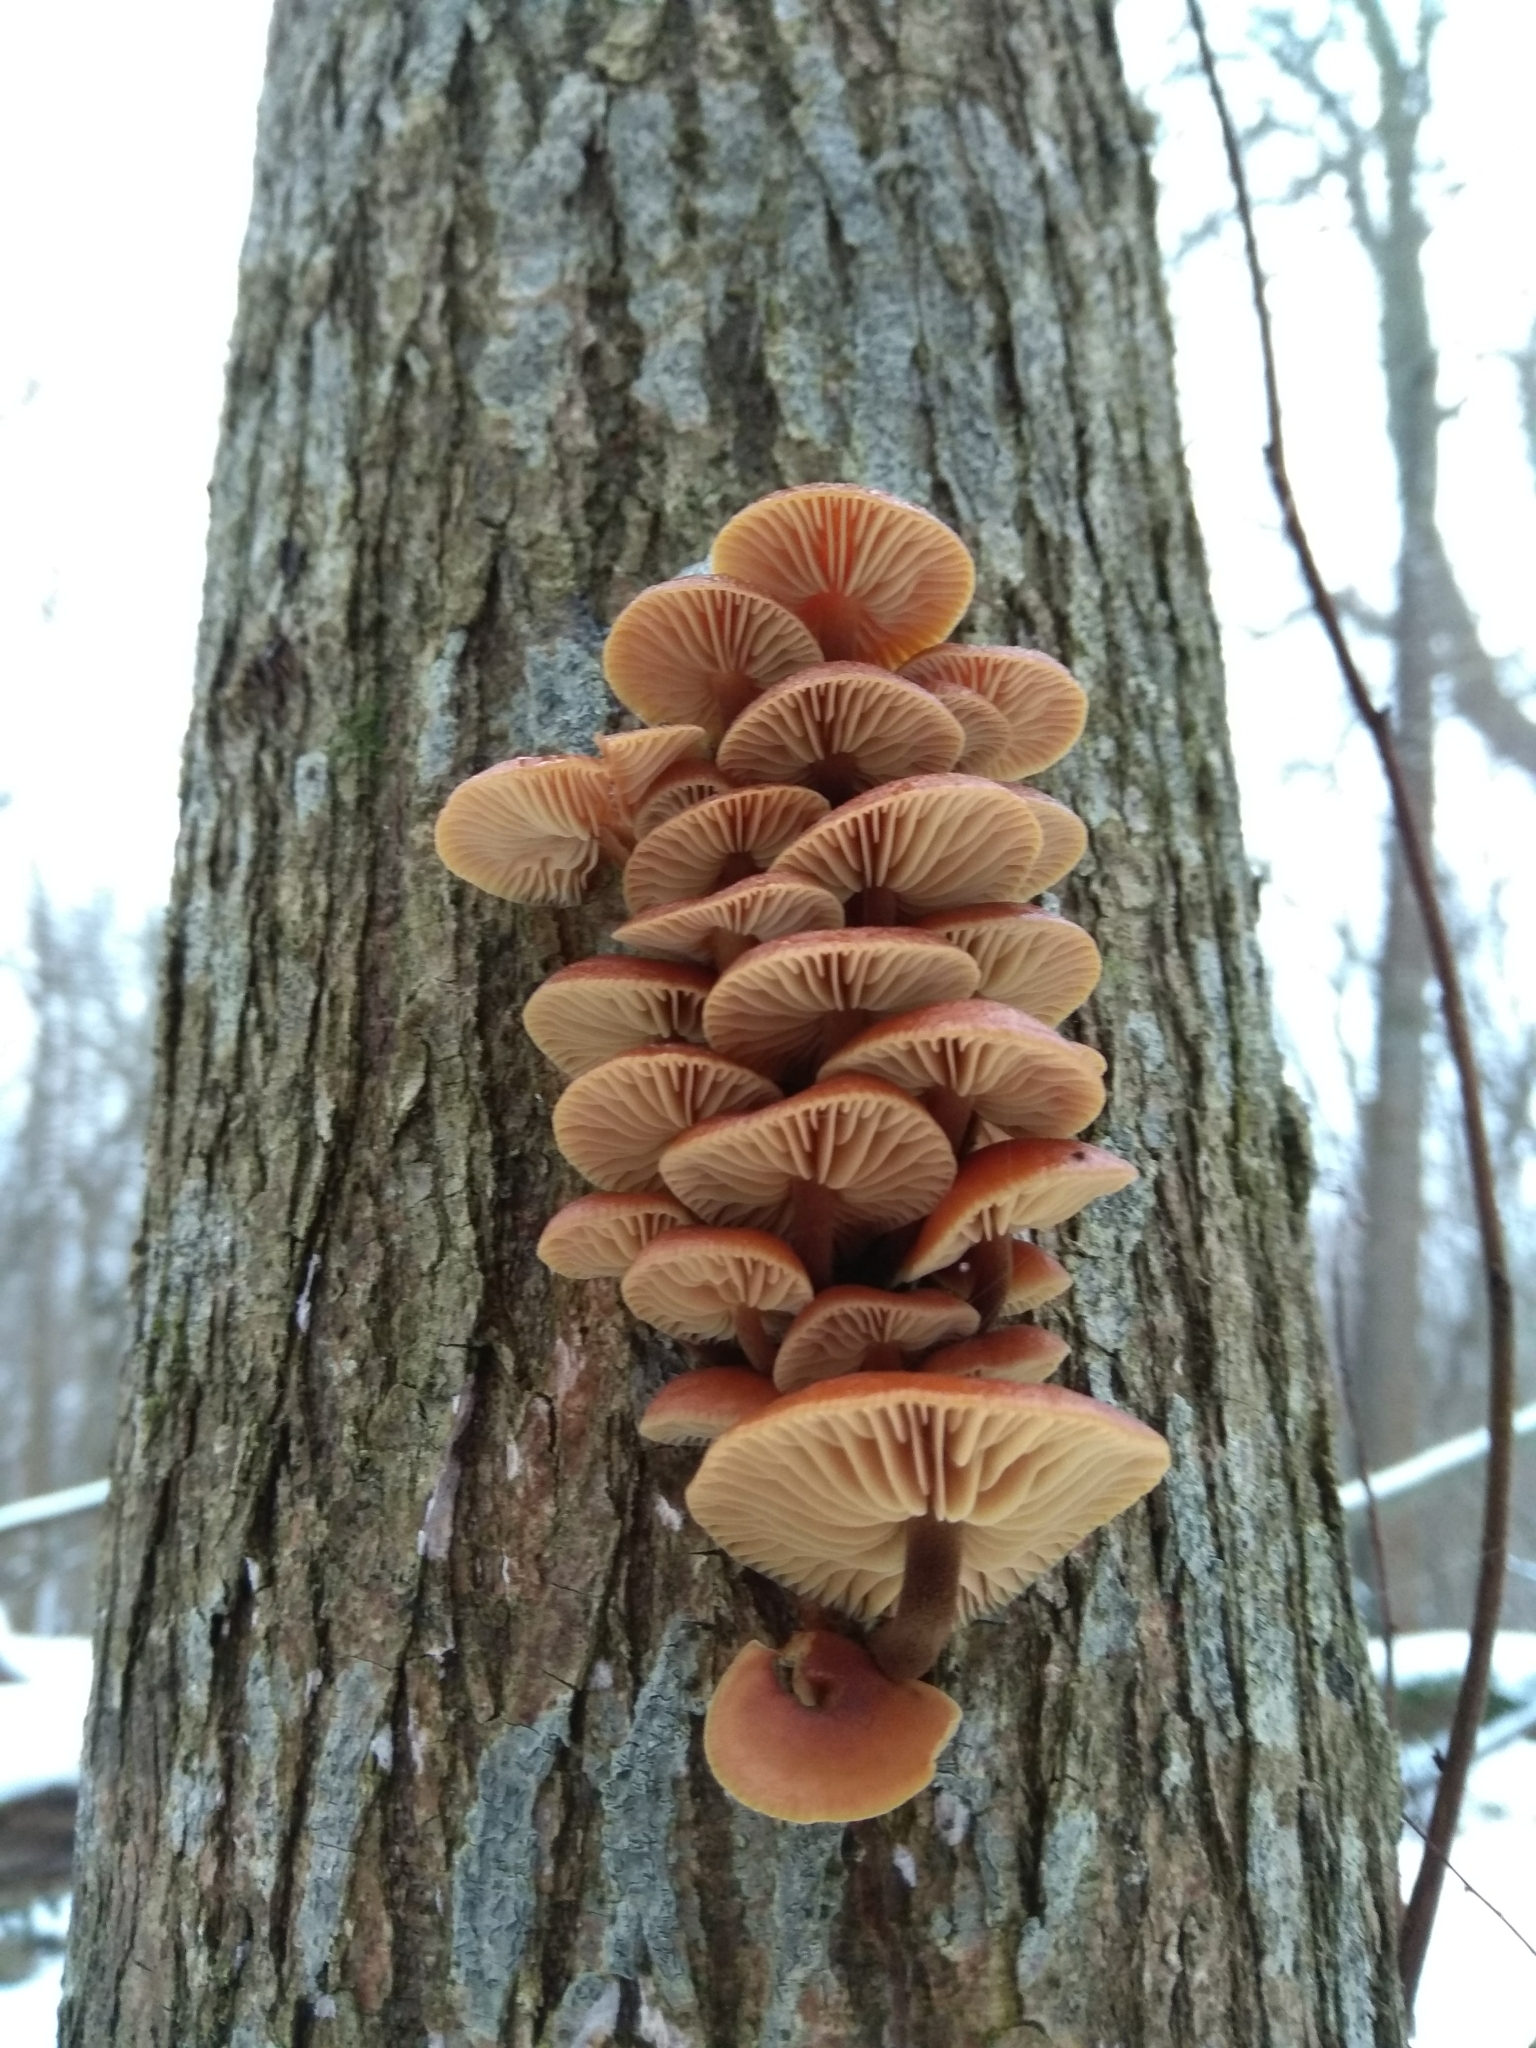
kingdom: Fungi
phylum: Basidiomycota
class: Agaricomycetes
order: Agaricales
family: Physalacriaceae
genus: Flammulina
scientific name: Flammulina
